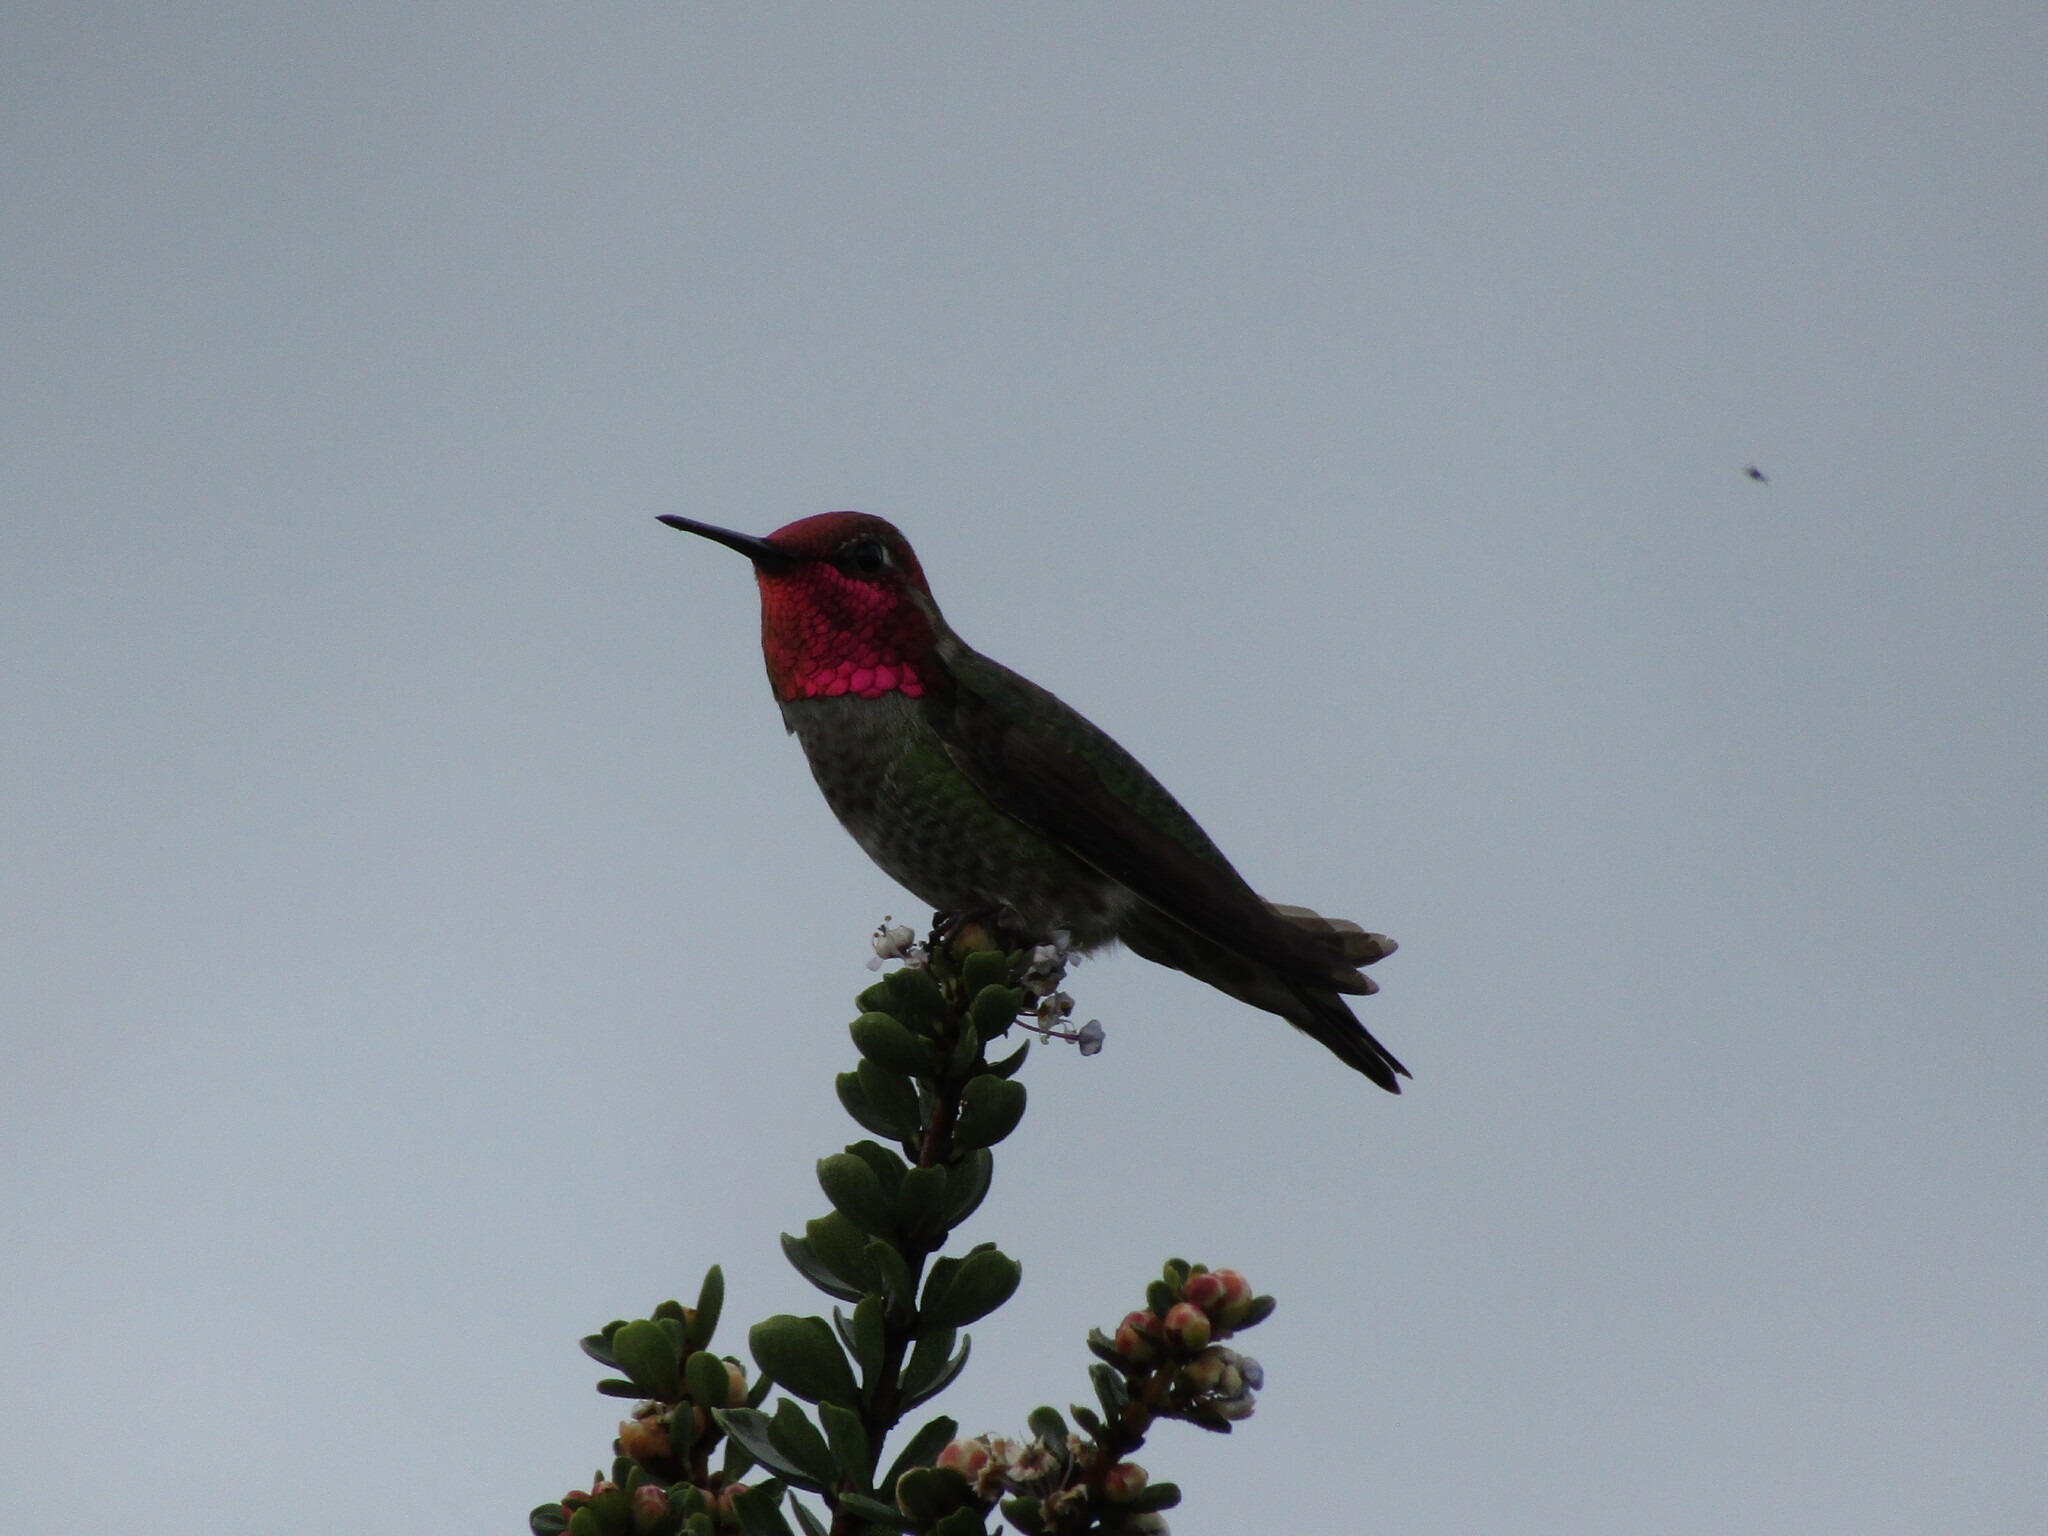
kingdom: Animalia
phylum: Chordata
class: Aves
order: Apodiformes
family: Trochilidae
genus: Calypte
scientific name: Calypte anna
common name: Anna's hummingbird
